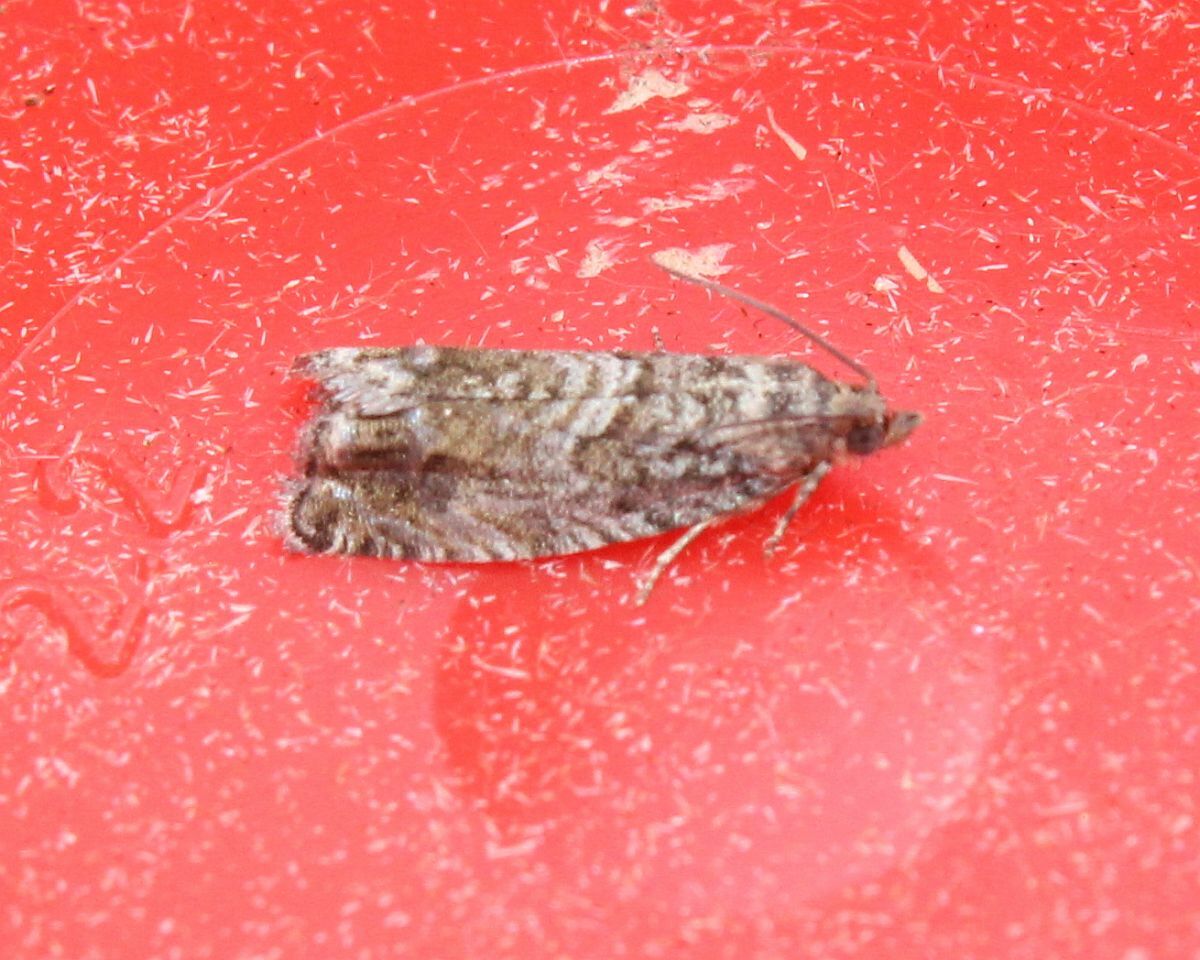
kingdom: Animalia
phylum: Arthropoda
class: Insecta
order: Lepidoptera
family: Tortricidae
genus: Cydia
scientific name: Cydia fagiglandana
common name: Large beech piercer
